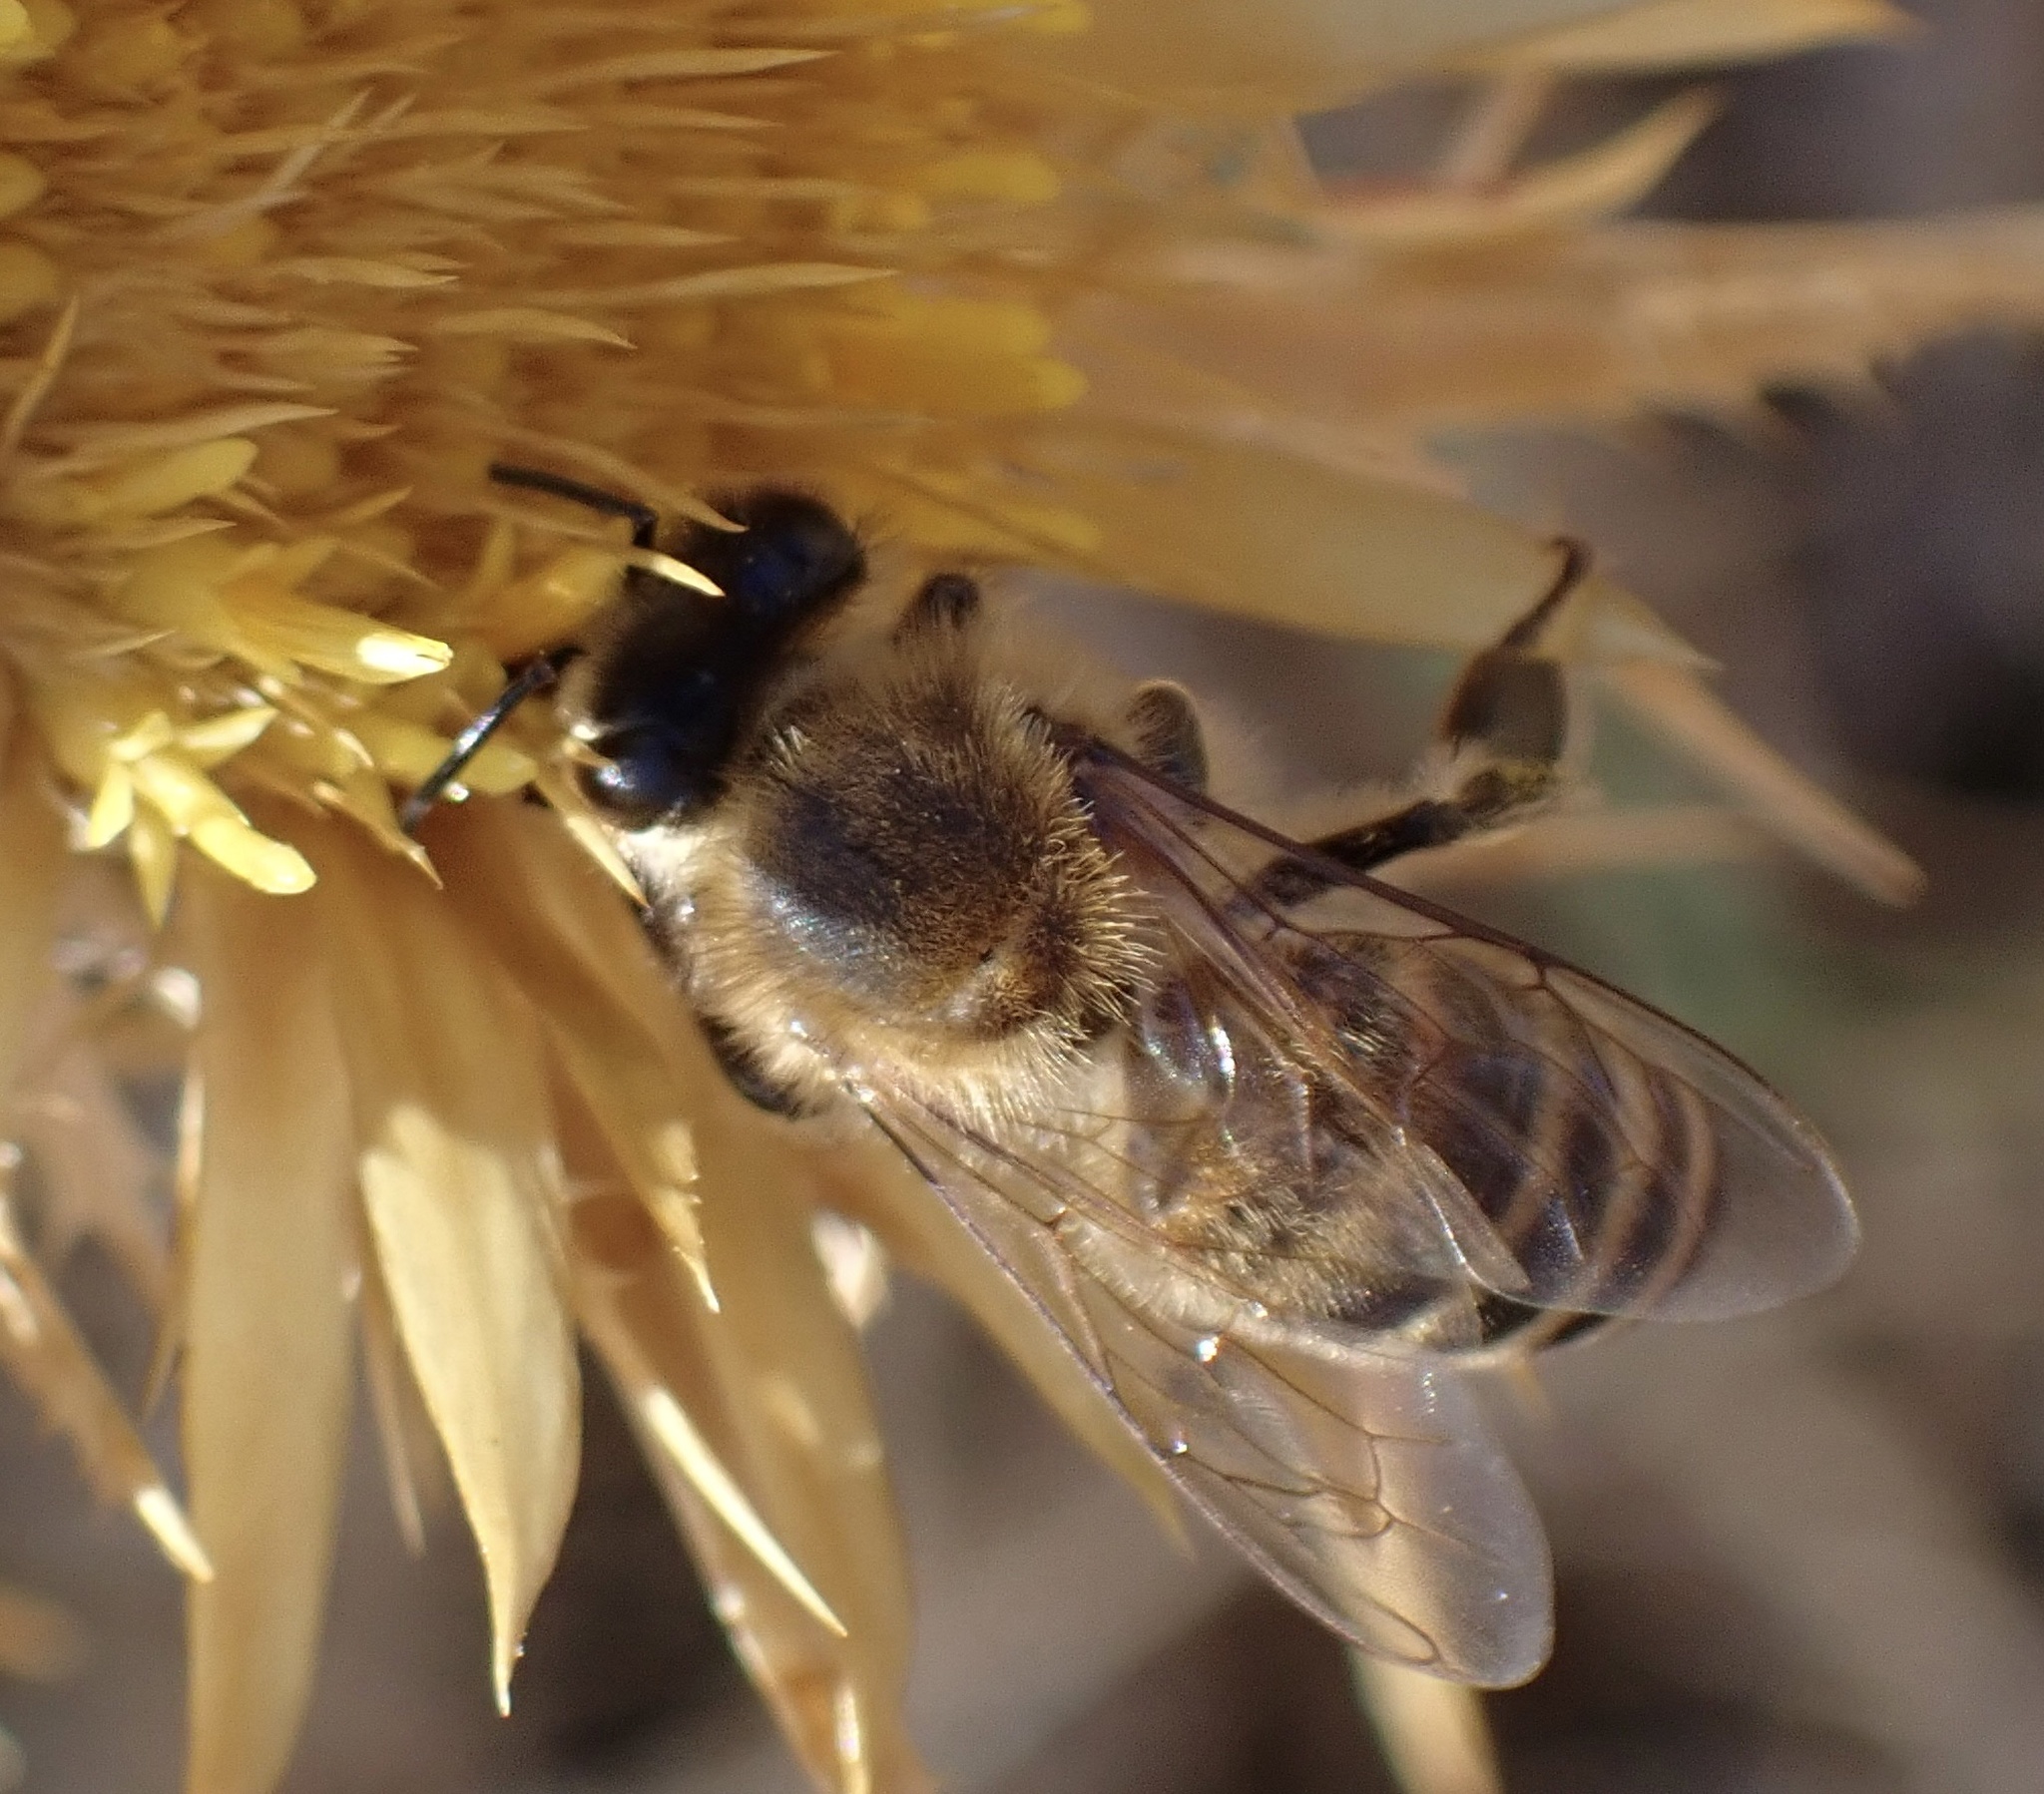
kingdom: Animalia
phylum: Arthropoda
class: Insecta
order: Hymenoptera
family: Apidae
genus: Apis
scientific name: Apis mellifera
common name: Honey bee
